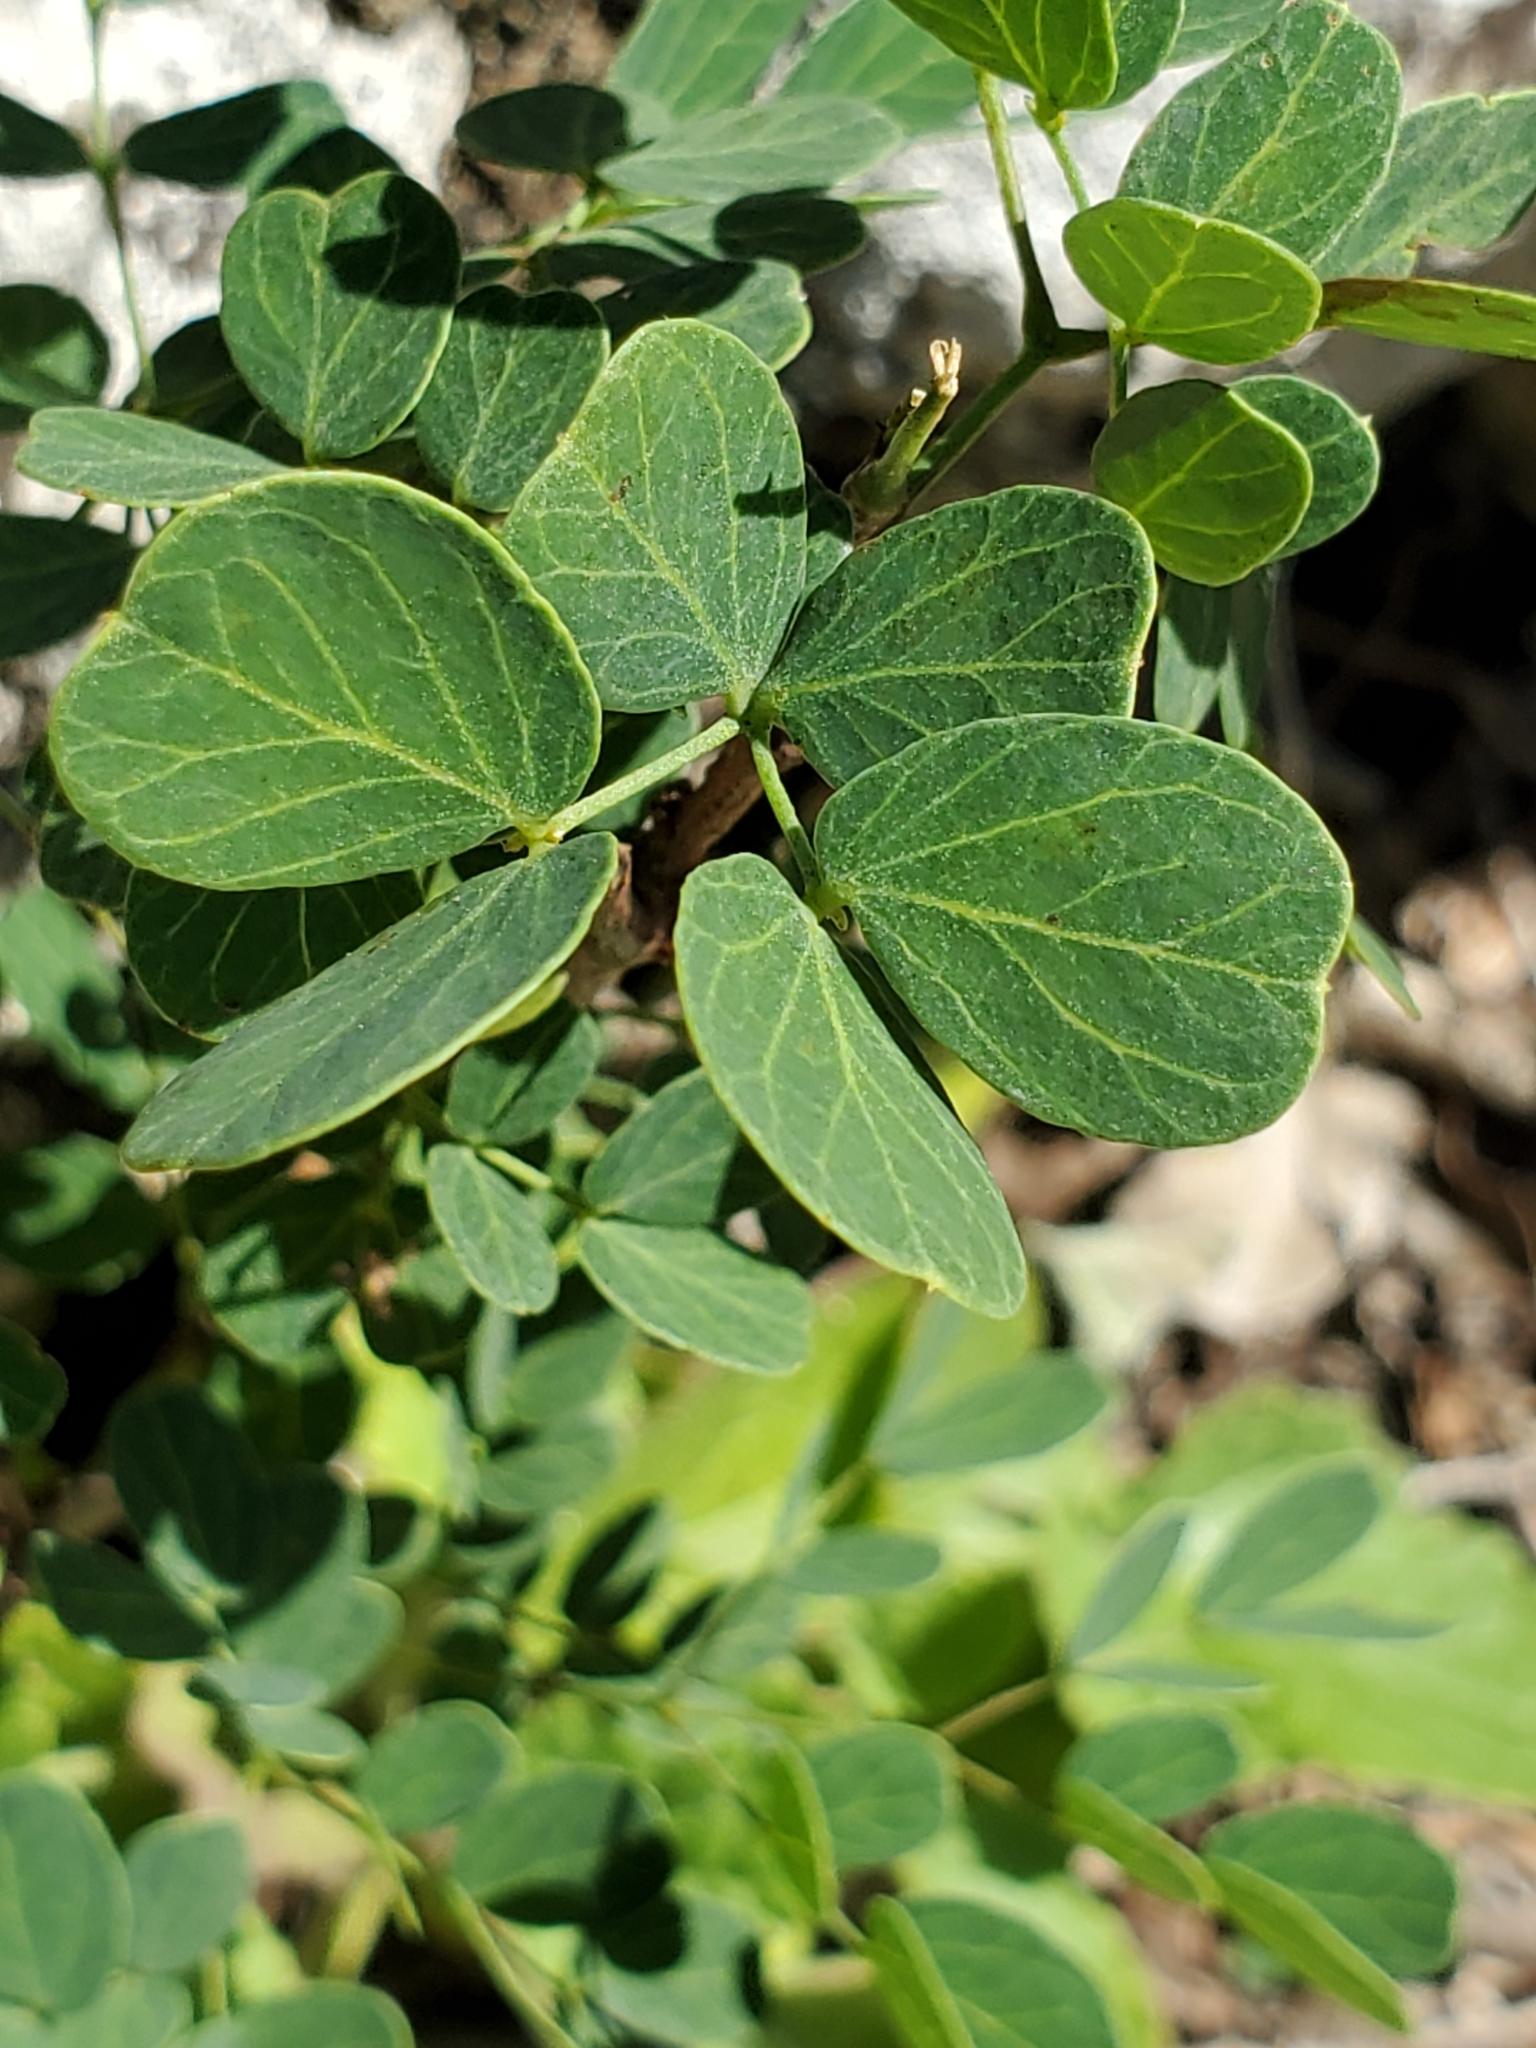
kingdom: Plantae
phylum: Tracheophyta
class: Magnoliopsida
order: Fabales
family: Fabaceae
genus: Leucaena
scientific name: Leucaena retusa
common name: Littleleaf leadtree
